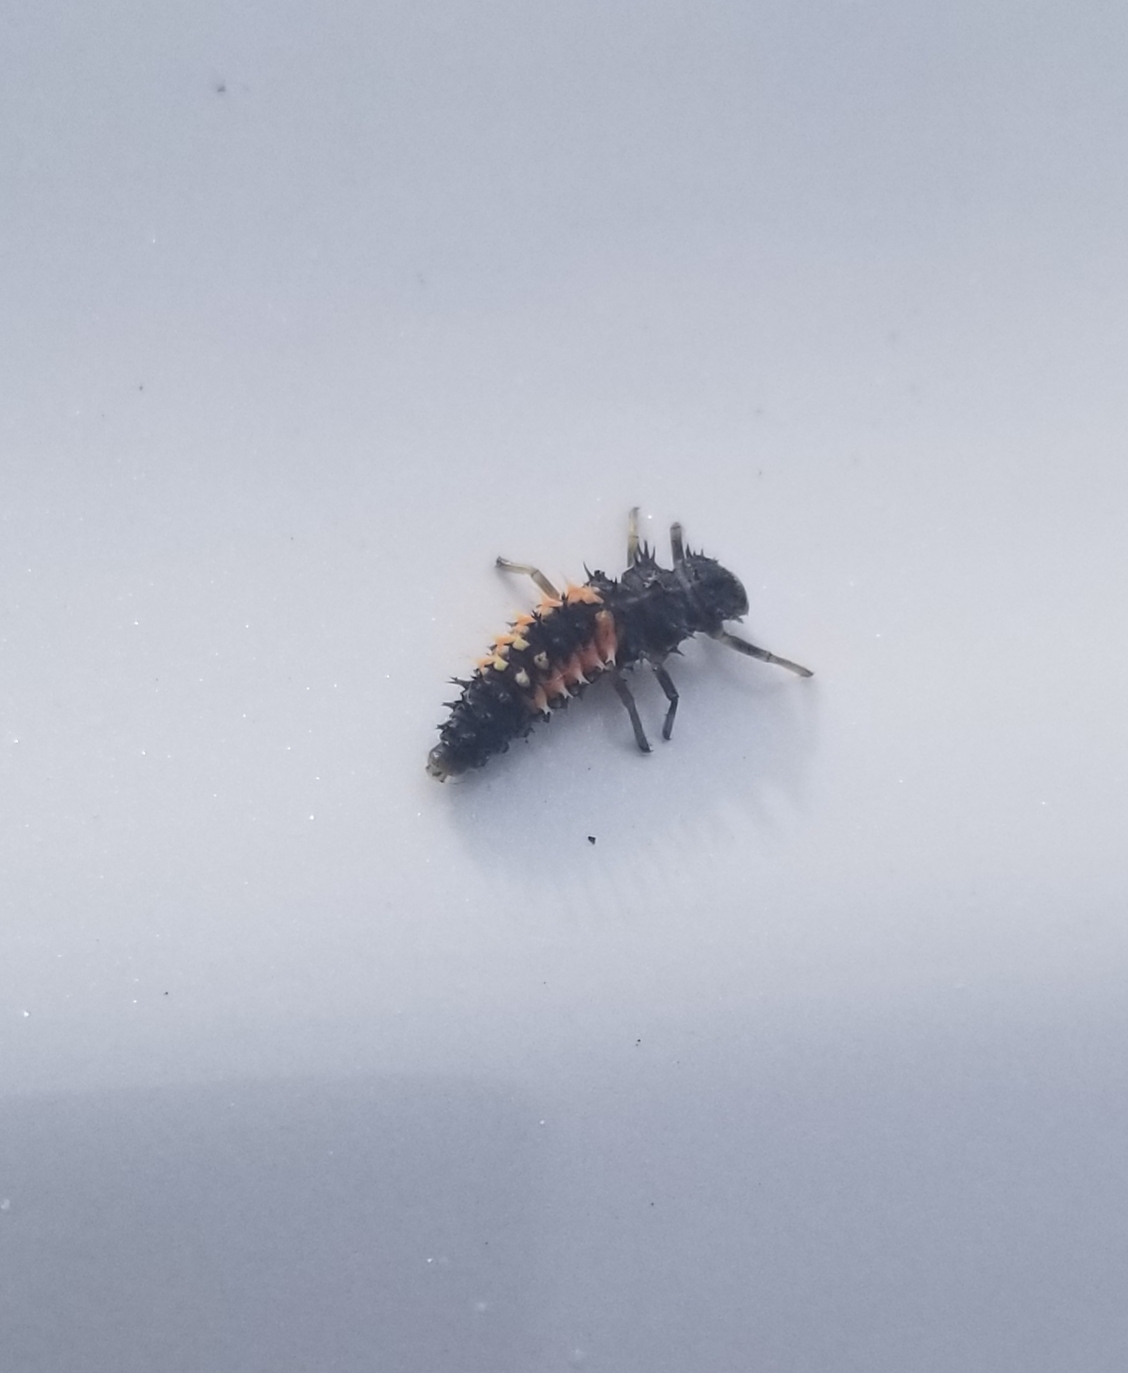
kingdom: Animalia
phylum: Arthropoda
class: Insecta
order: Coleoptera
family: Coccinellidae
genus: Harmonia
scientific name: Harmonia axyridis
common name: Harlequin ladybird
